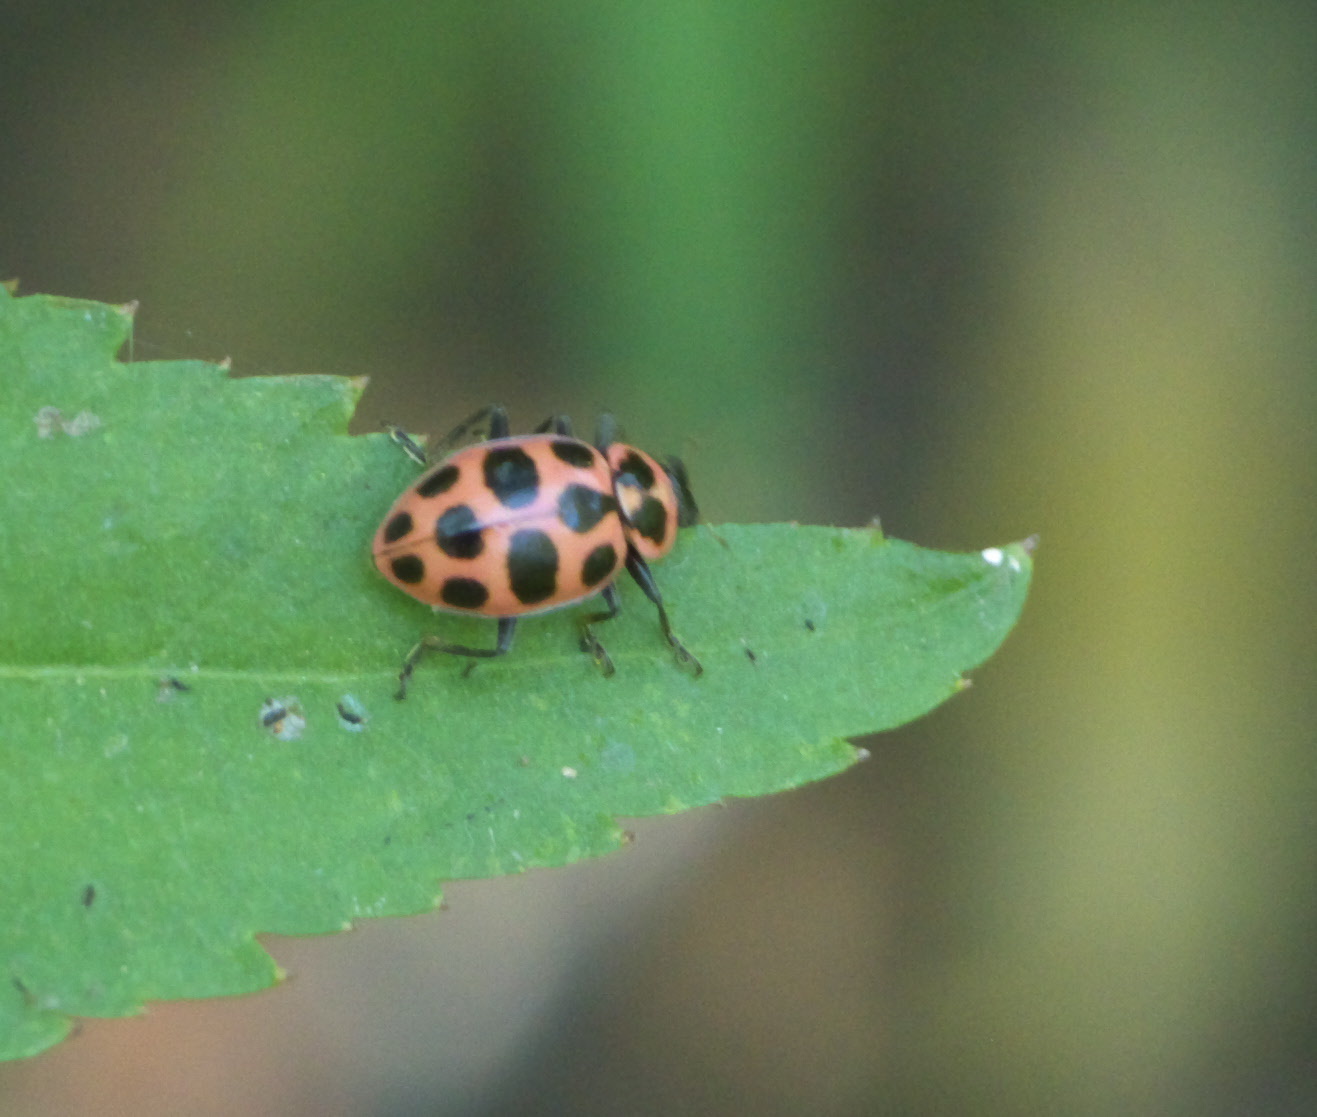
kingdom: Animalia
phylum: Arthropoda
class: Insecta
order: Coleoptera
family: Coccinellidae
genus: Coleomegilla
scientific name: Coleomegilla maculata
